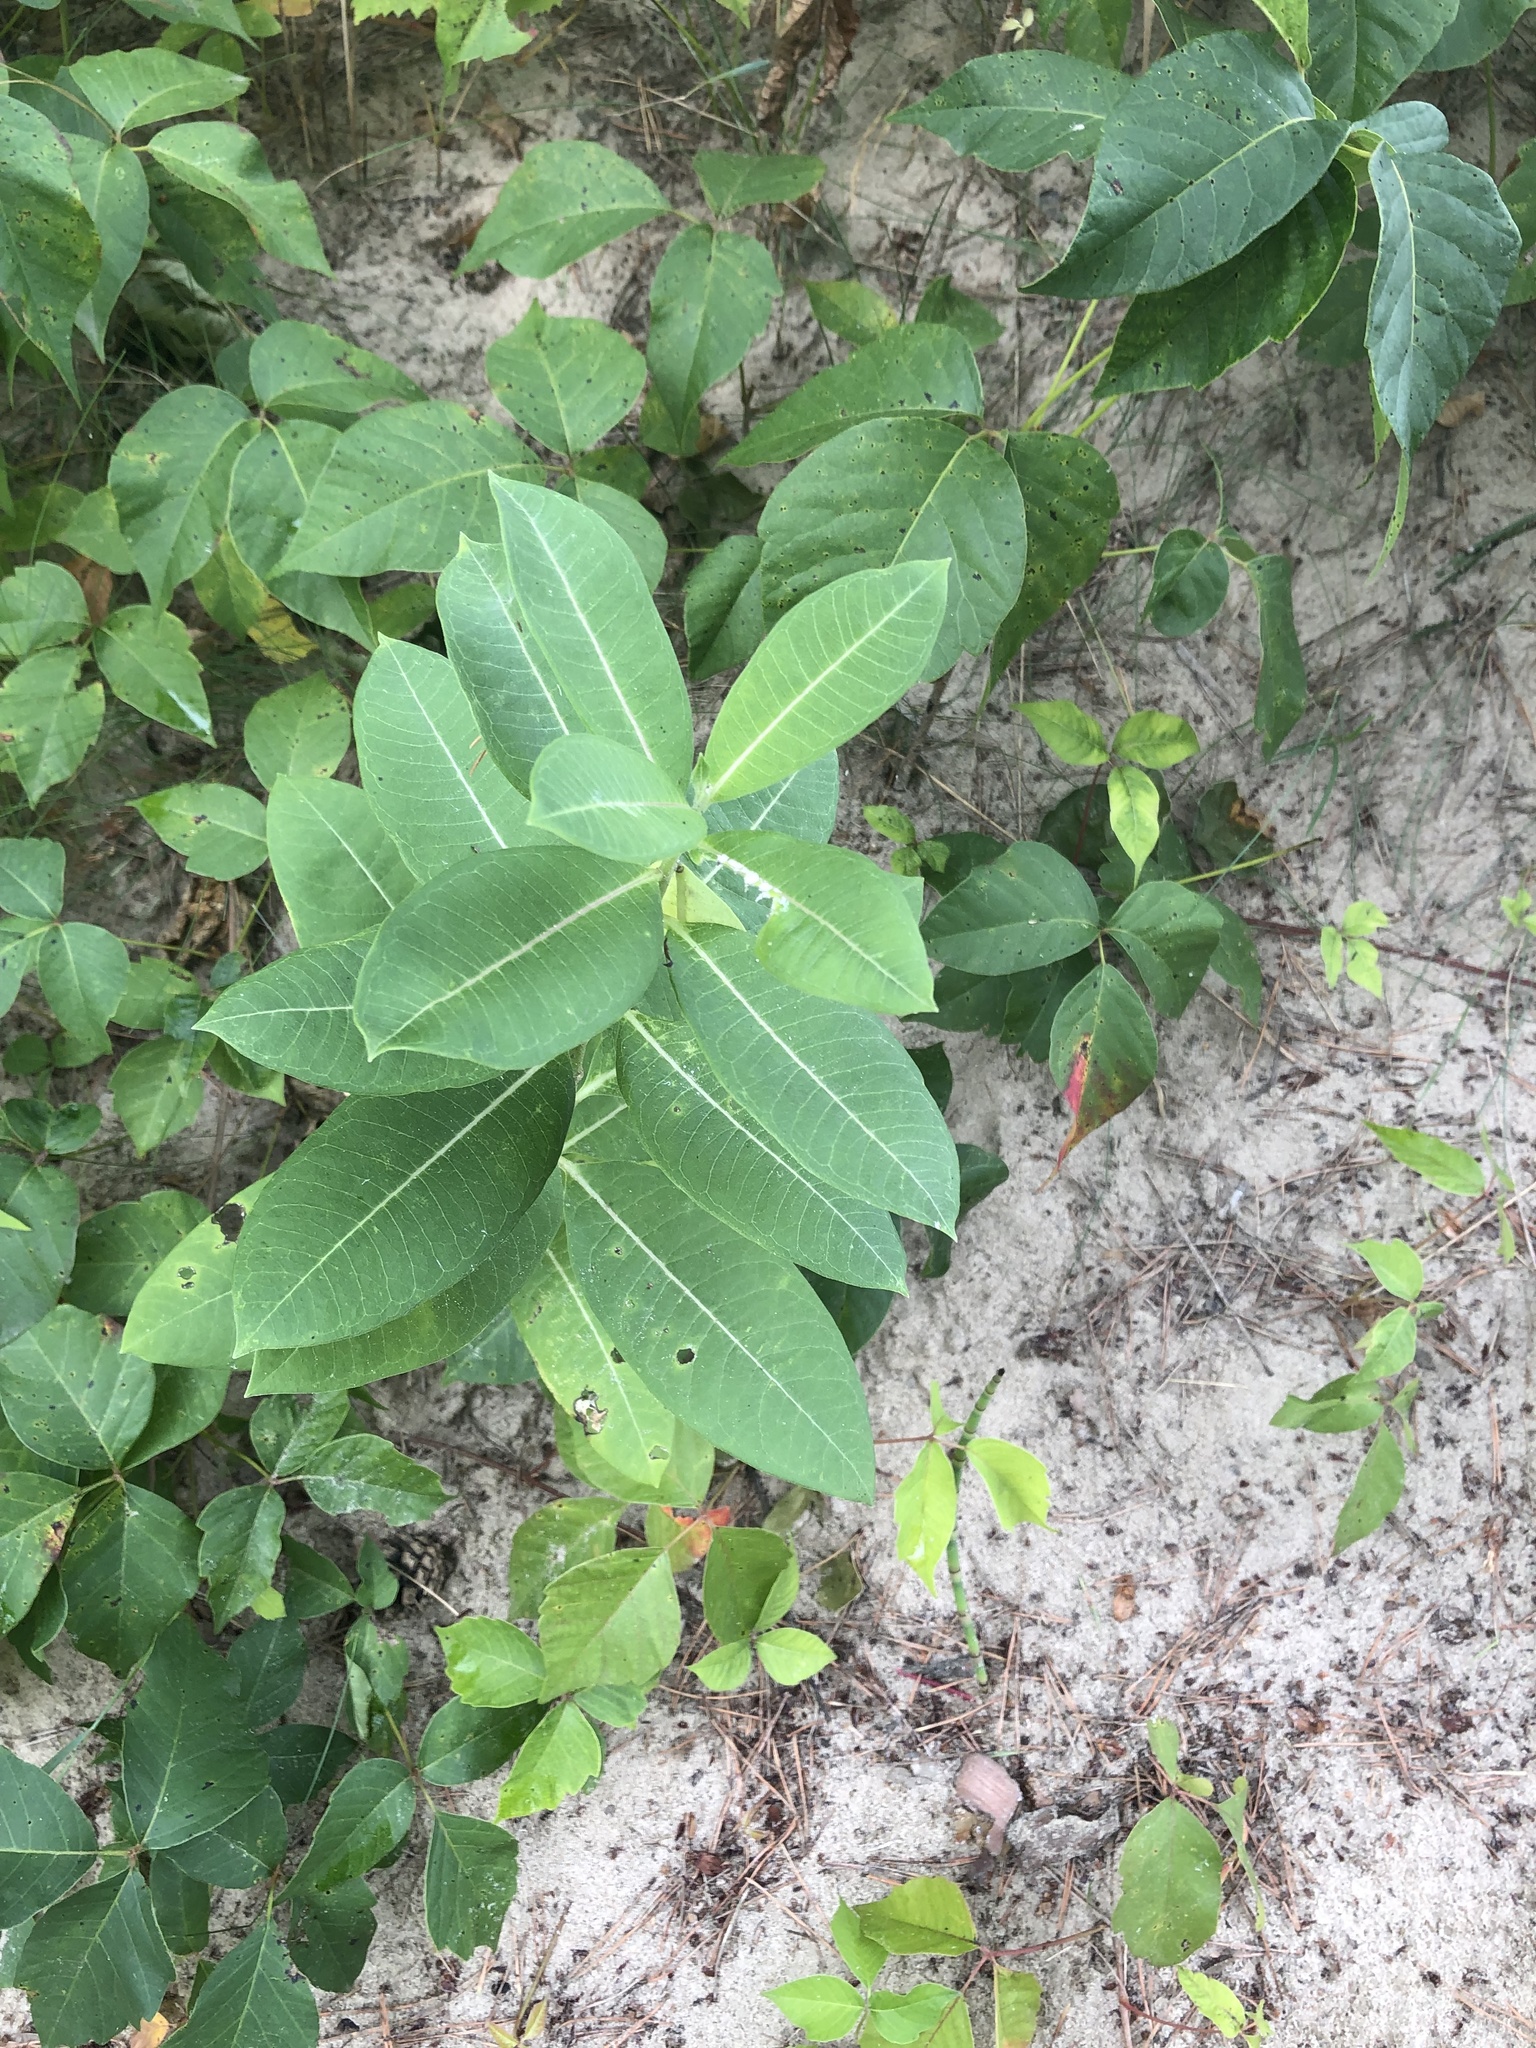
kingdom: Plantae
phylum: Tracheophyta
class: Magnoliopsida
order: Gentianales
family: Apocynaceae
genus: Asclepias
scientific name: Asclepias syriaca
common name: Common milkweed
